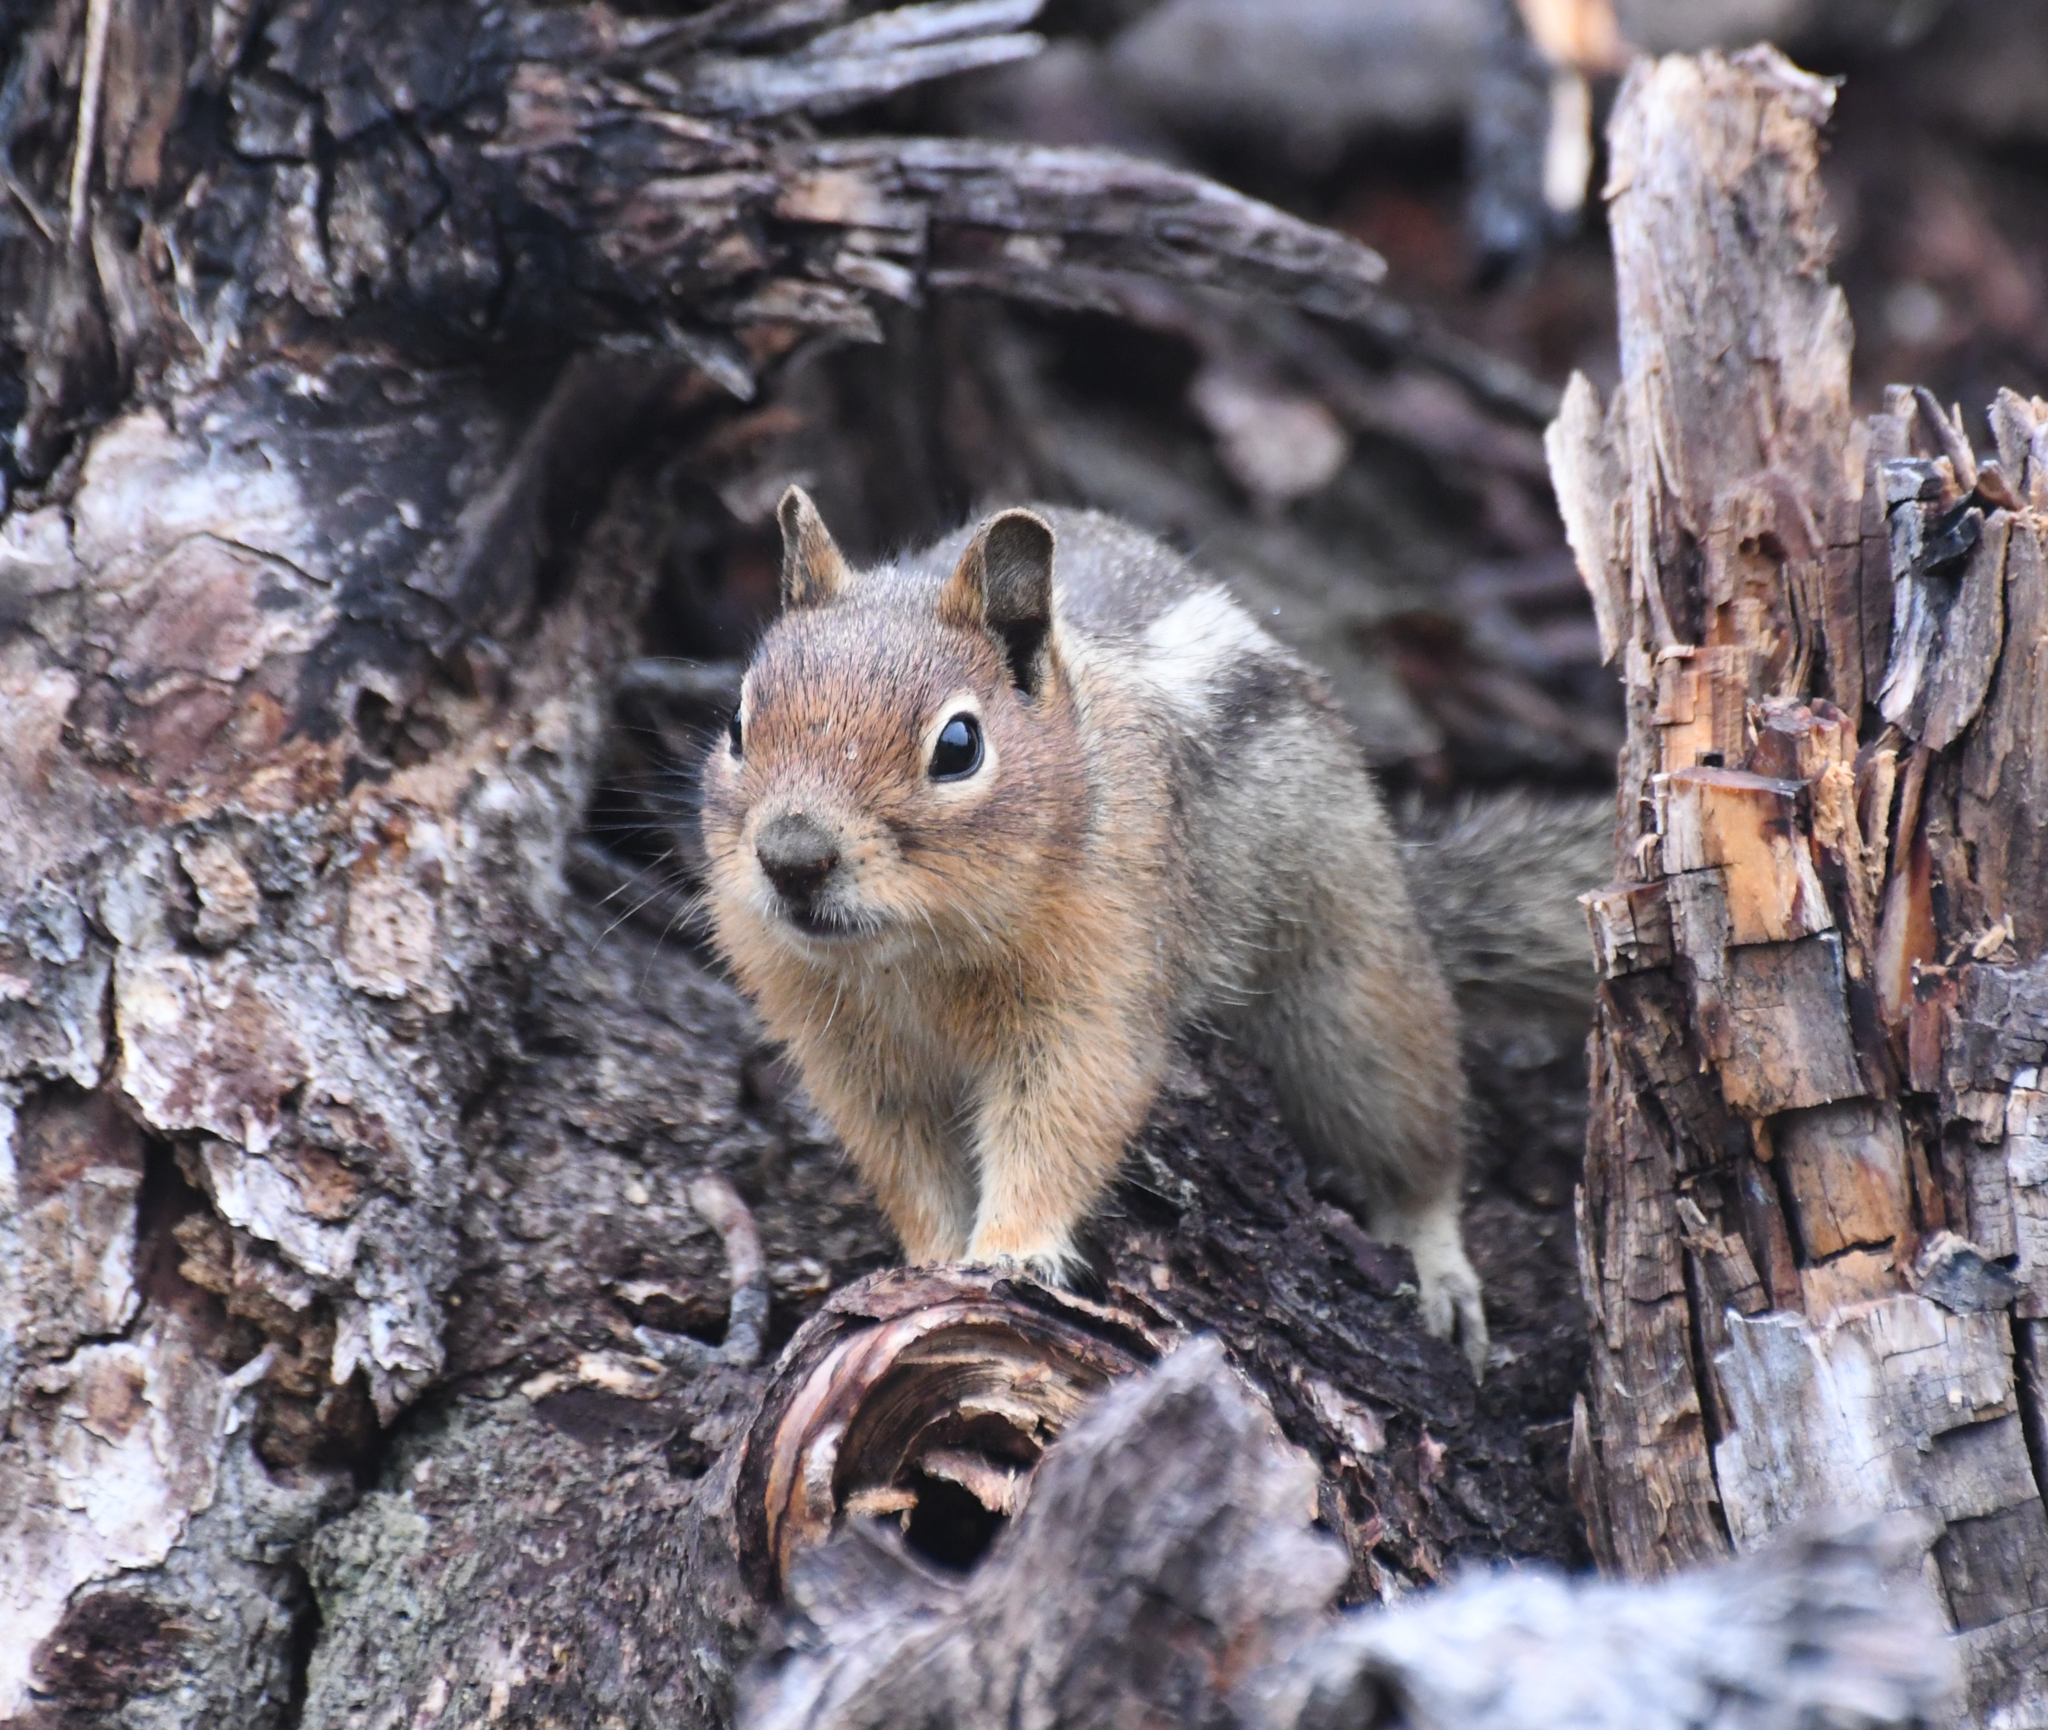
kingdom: Animalia
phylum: Chordata
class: Mammalia
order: Rodentia
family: Sciuridae
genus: Callospermophilus
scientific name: Callospermophilus saturatus
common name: Cascade golden-mantled ground squirrel
